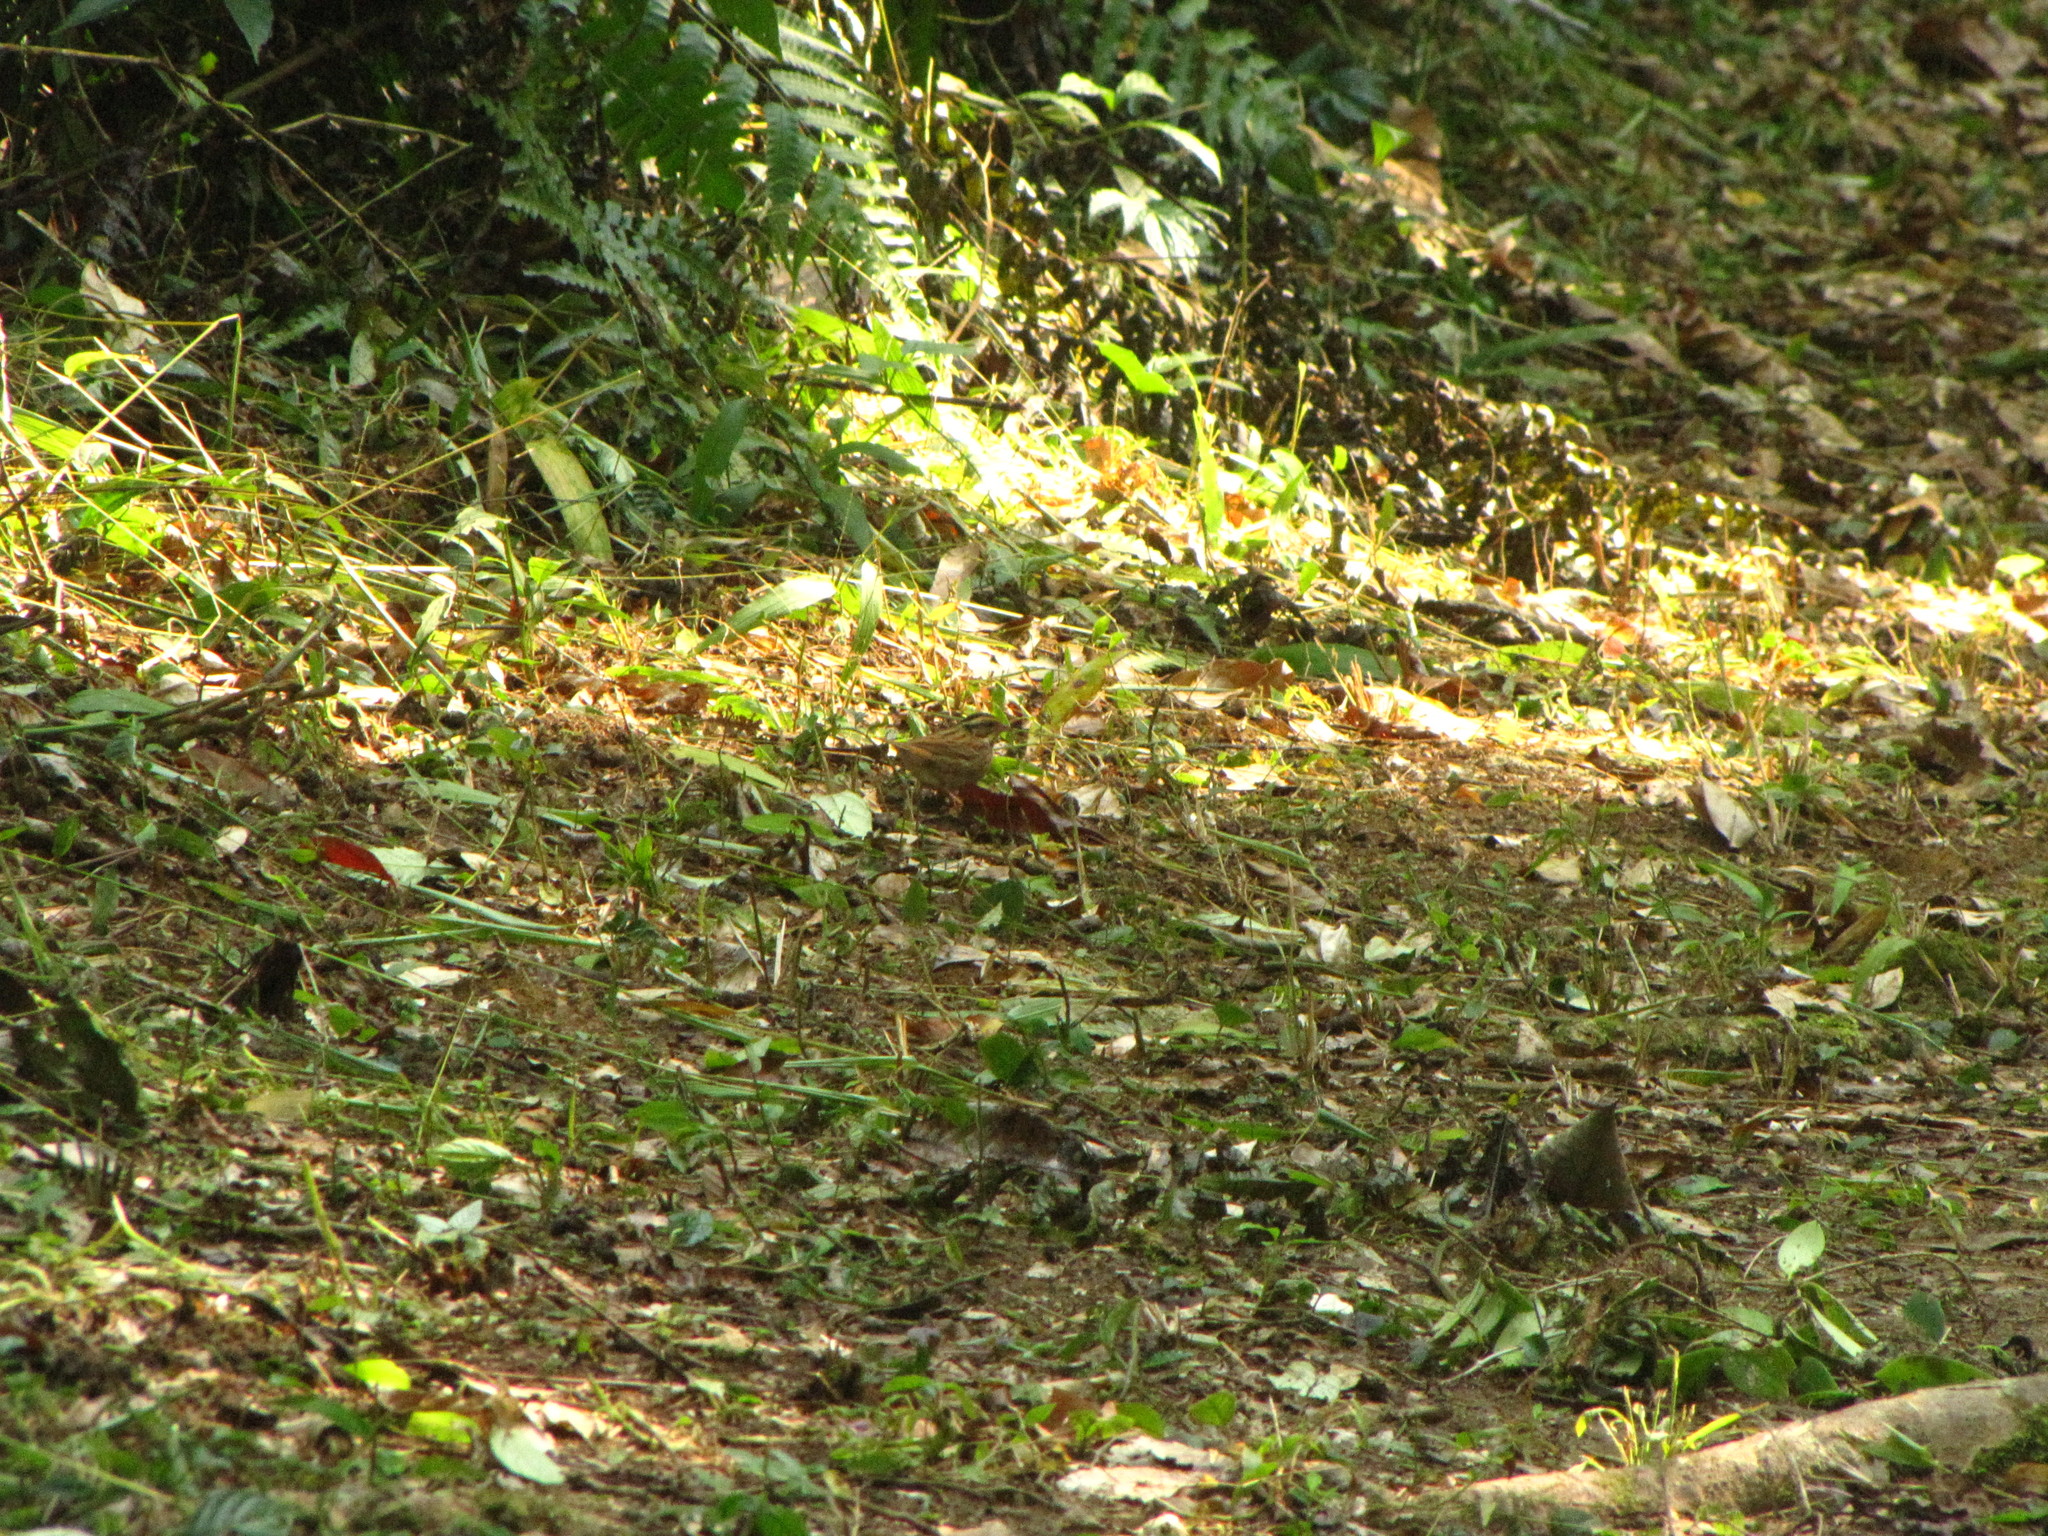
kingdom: Animalia
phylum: Chordata
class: Aves
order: Passeriformes
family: Emberizidae
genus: Emberiza
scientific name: Emberiza tristrami
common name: Tristram's bunting
